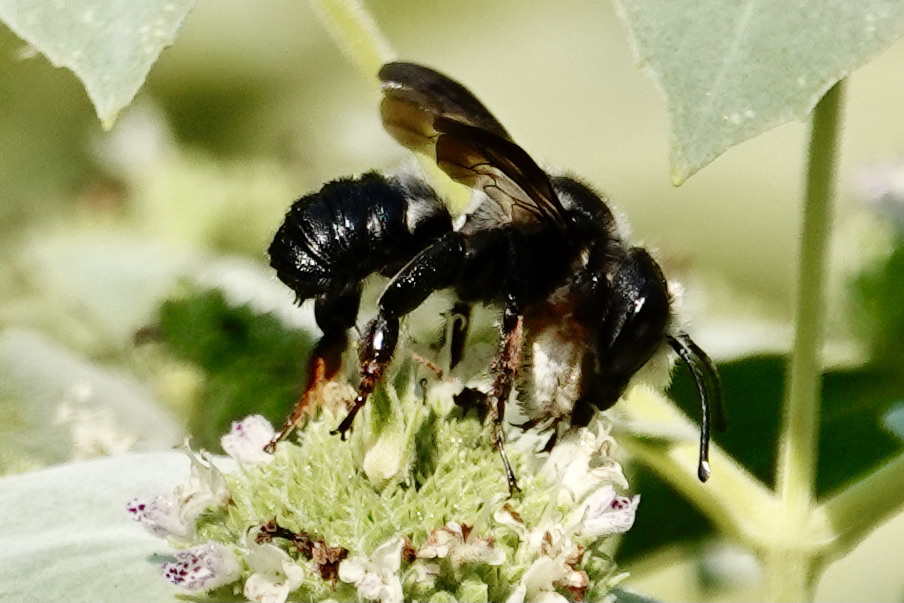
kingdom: Animalia
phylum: Arthropoda
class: Insecta
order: Hymenoptera
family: Megachilidae
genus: Megachile
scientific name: Megachile xylocopoides
